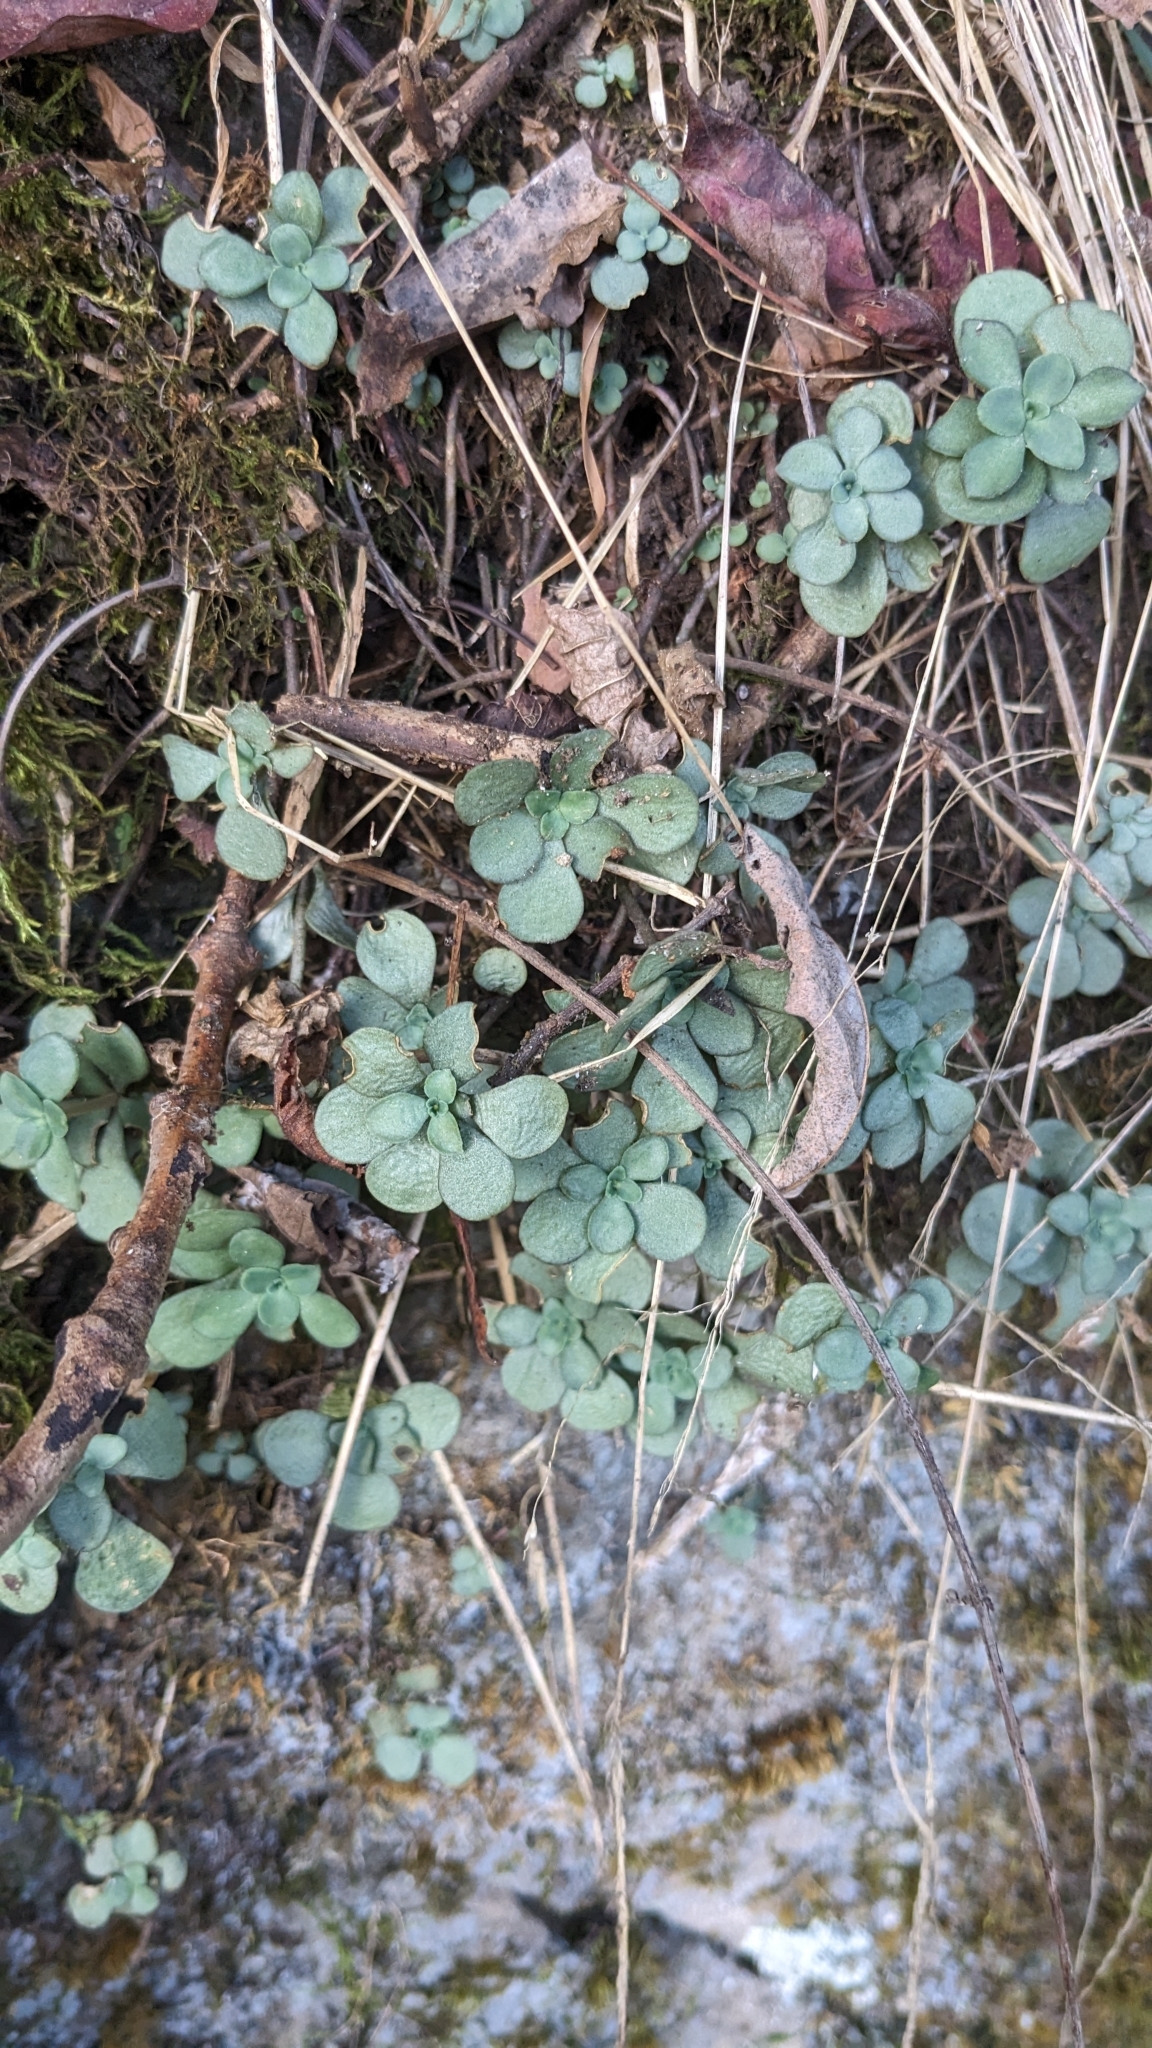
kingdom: Plantae
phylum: Tracheophyta
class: Magnoliopsida
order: Saxifragales
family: Crassulaceae
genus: Sedum
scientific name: Sedum ternatum
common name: Wild stonecrop
